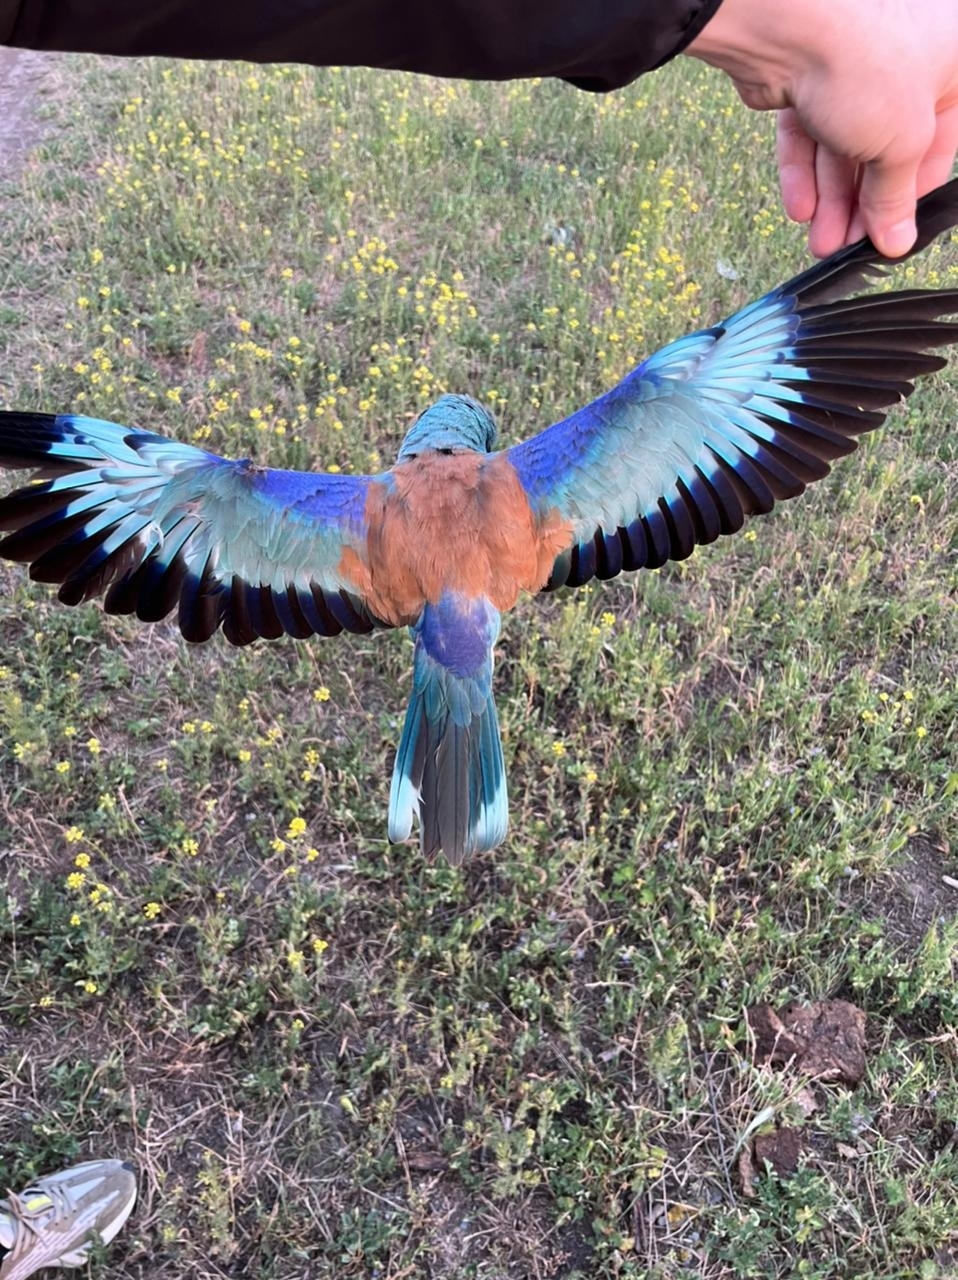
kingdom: Animalia
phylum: Chordata
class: Aves
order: Coraciiformes
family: Coraciidae
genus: Coracias
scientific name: Coracias garrulus
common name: European roller
